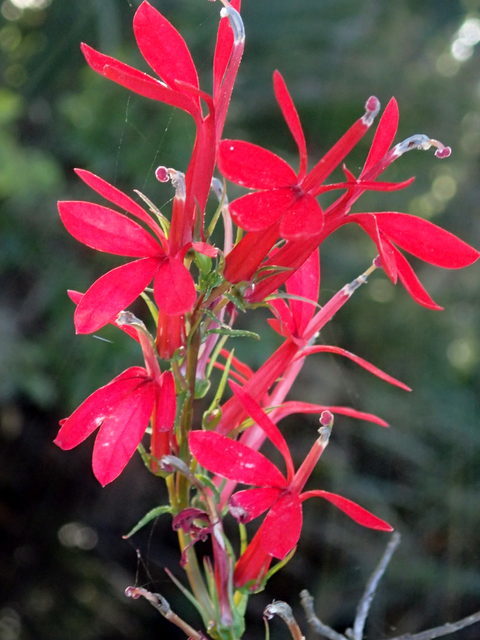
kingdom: Plantae
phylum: Tracheophyta
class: Magnoliopsida
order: Asterales
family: Campanulaceae
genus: Lobelia
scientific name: Lobelia cardinalis
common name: Cardinal flower
